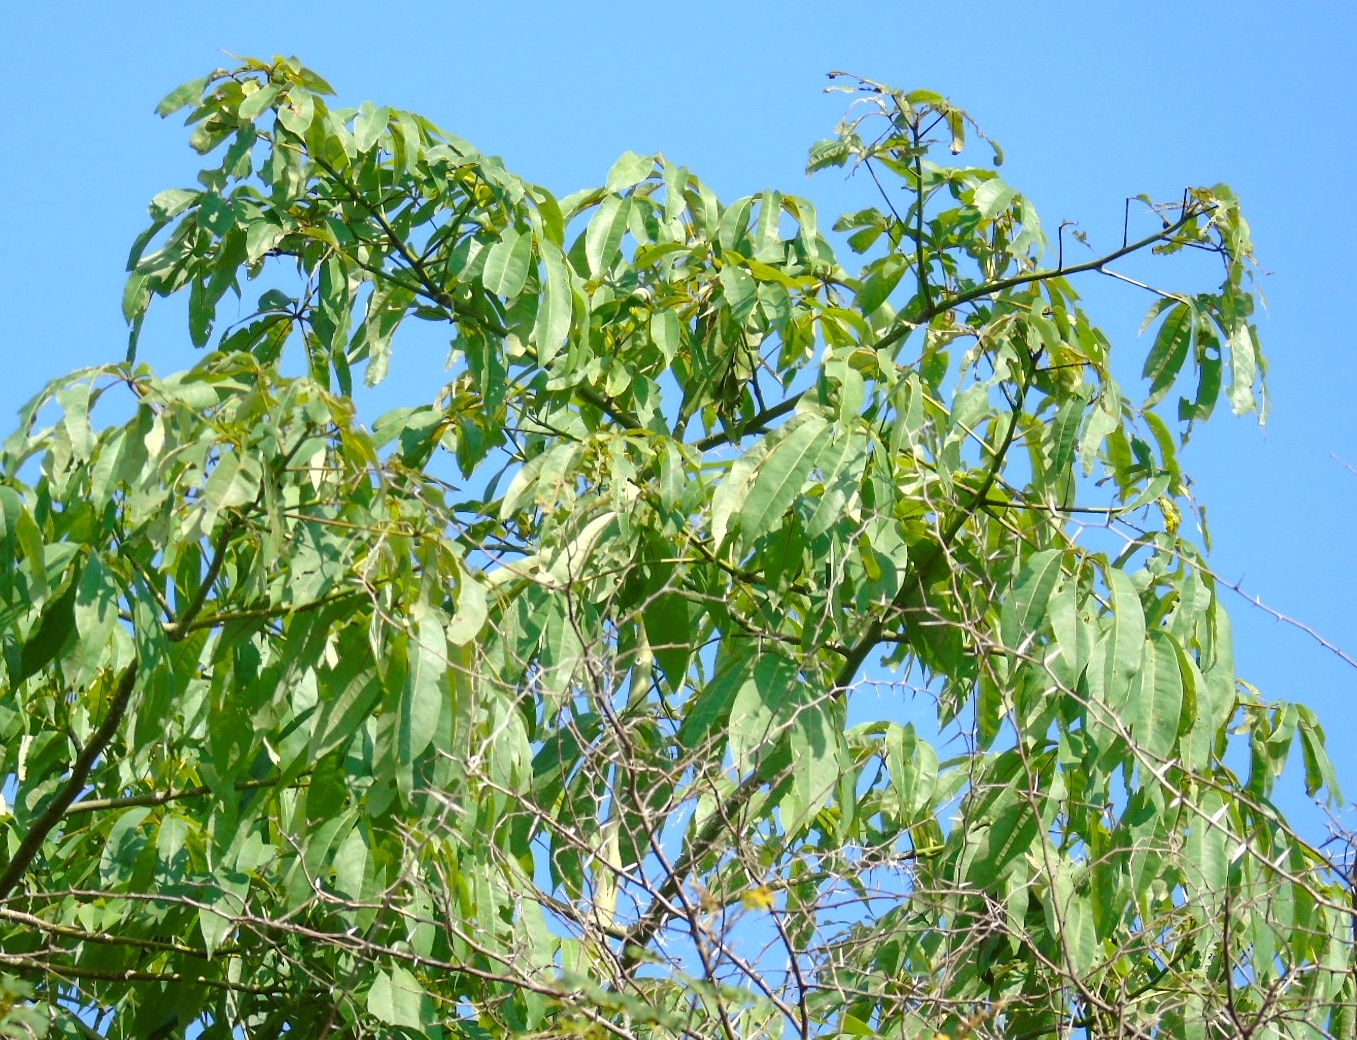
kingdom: Plantae
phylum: Tracheophyta
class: Magnoliopsida
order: Malvales
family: Malvaceae
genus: Ceiba
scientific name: Ceiba pentandra
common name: Kapok
